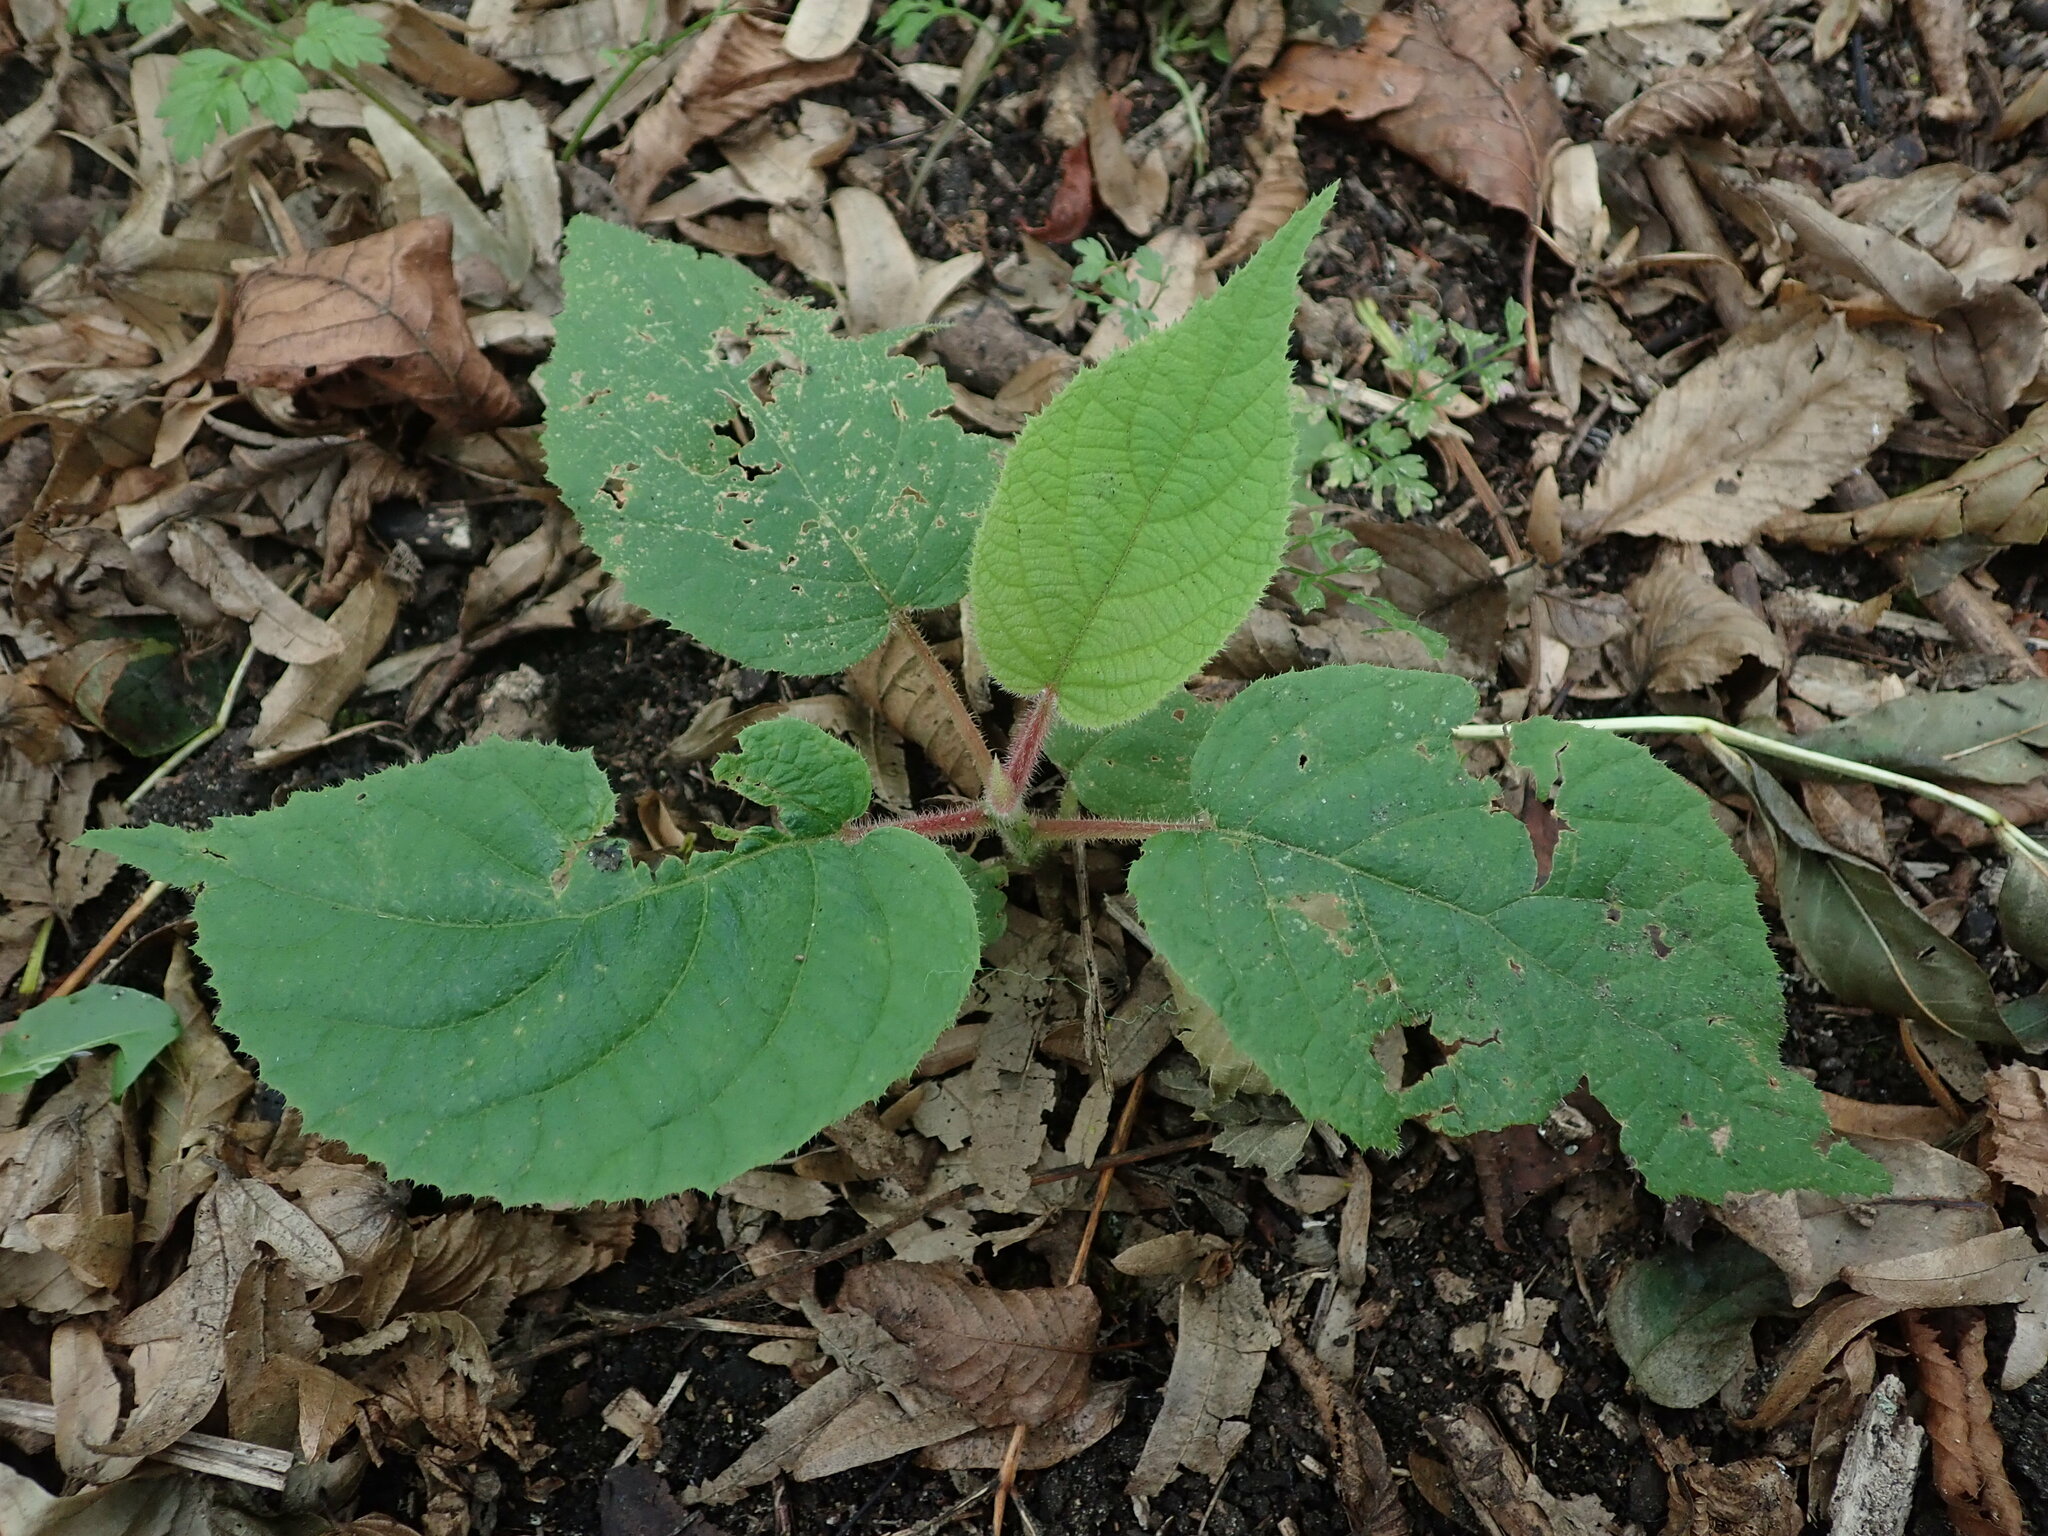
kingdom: Plantae
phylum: Tracheophyta
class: Magnoliopsida
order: Lamiales
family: Lamiaceae
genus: Stachys
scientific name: Stachys sylvatica
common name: Hedge woundwort
